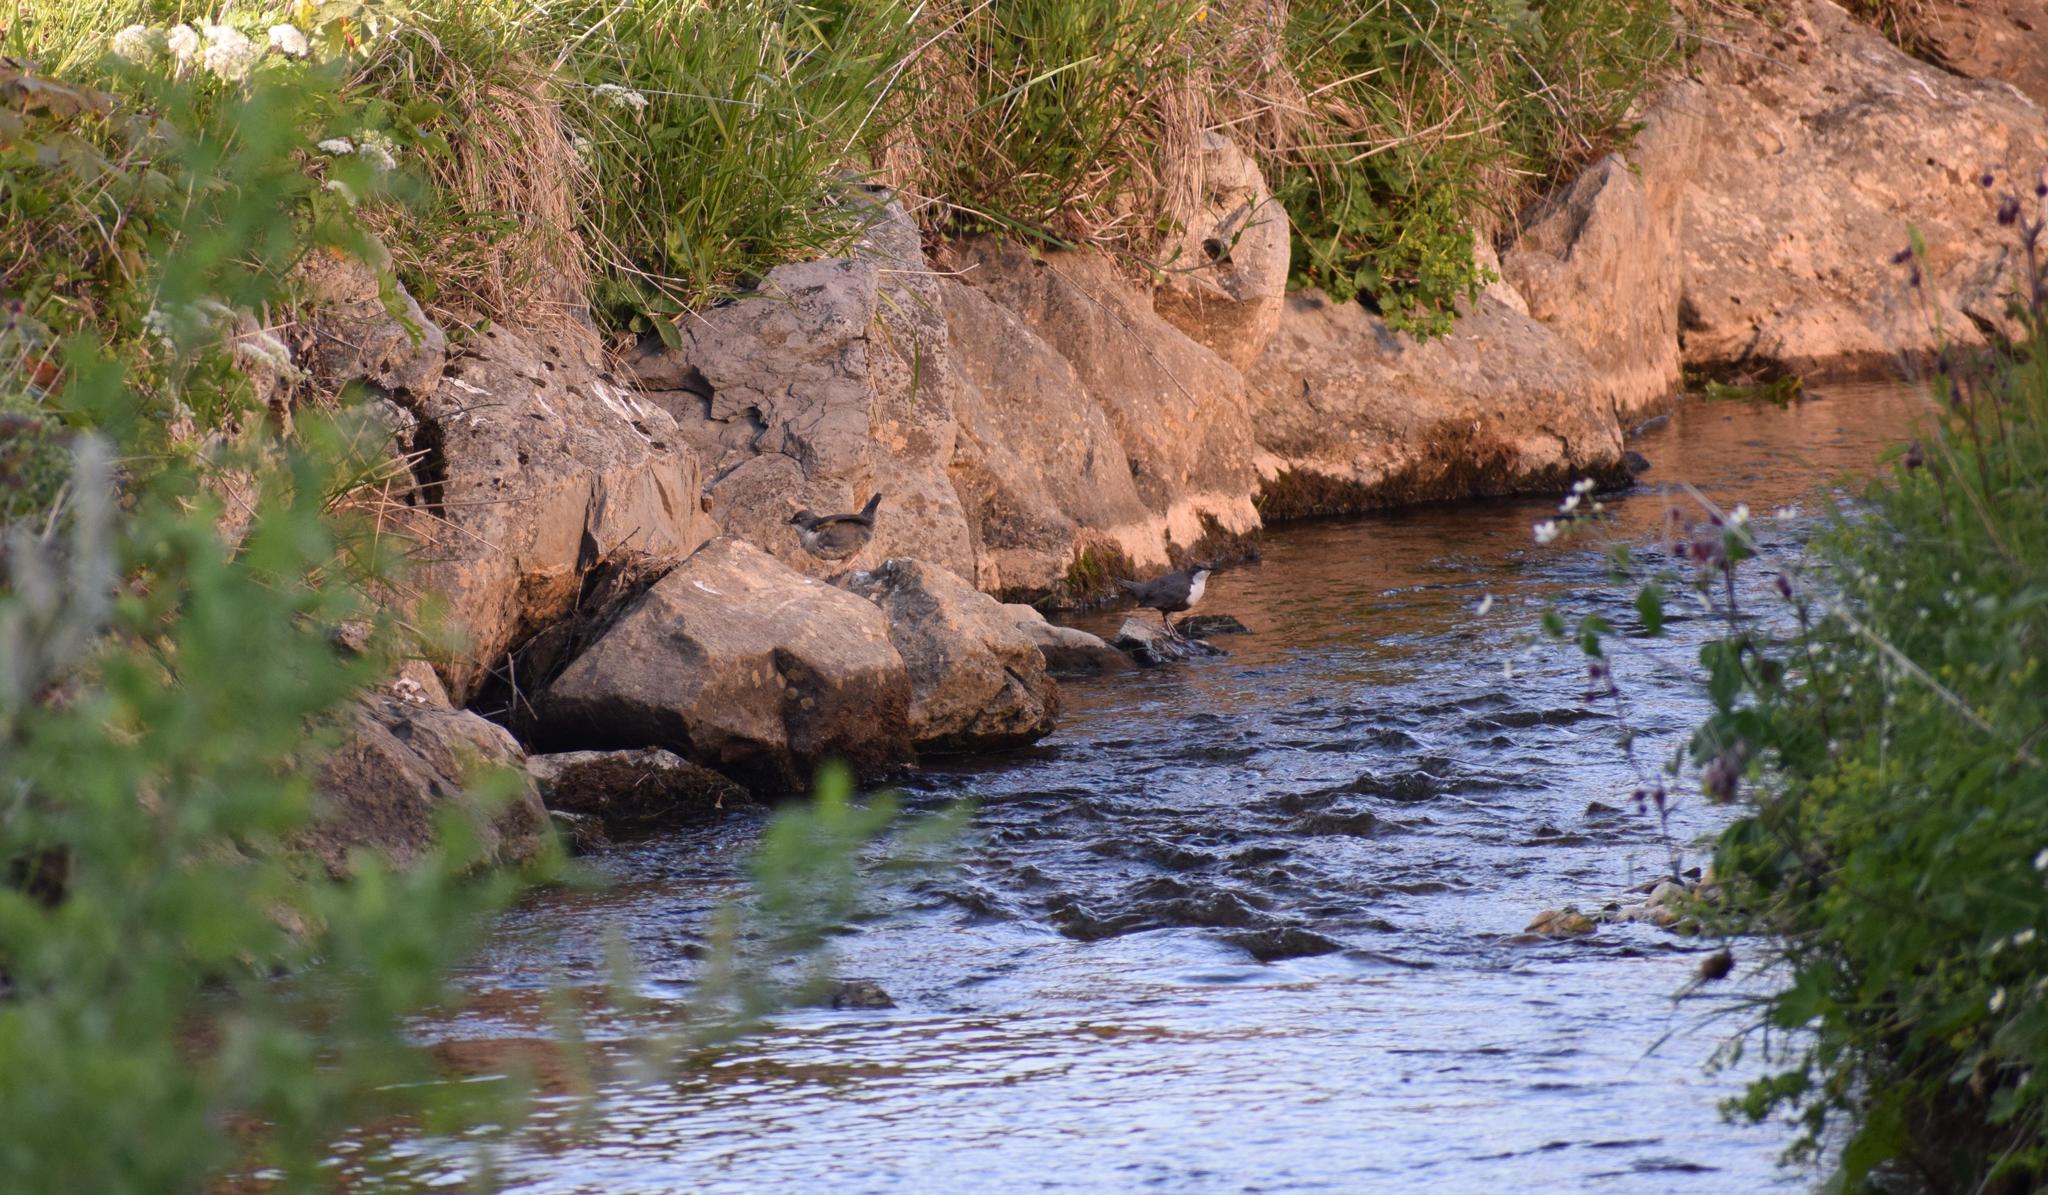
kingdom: Animalia
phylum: Chordata
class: Aves
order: Passeriformes
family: Cinclidae
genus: Cinclus
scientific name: Cinclus cinclus
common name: White-throated dipper
